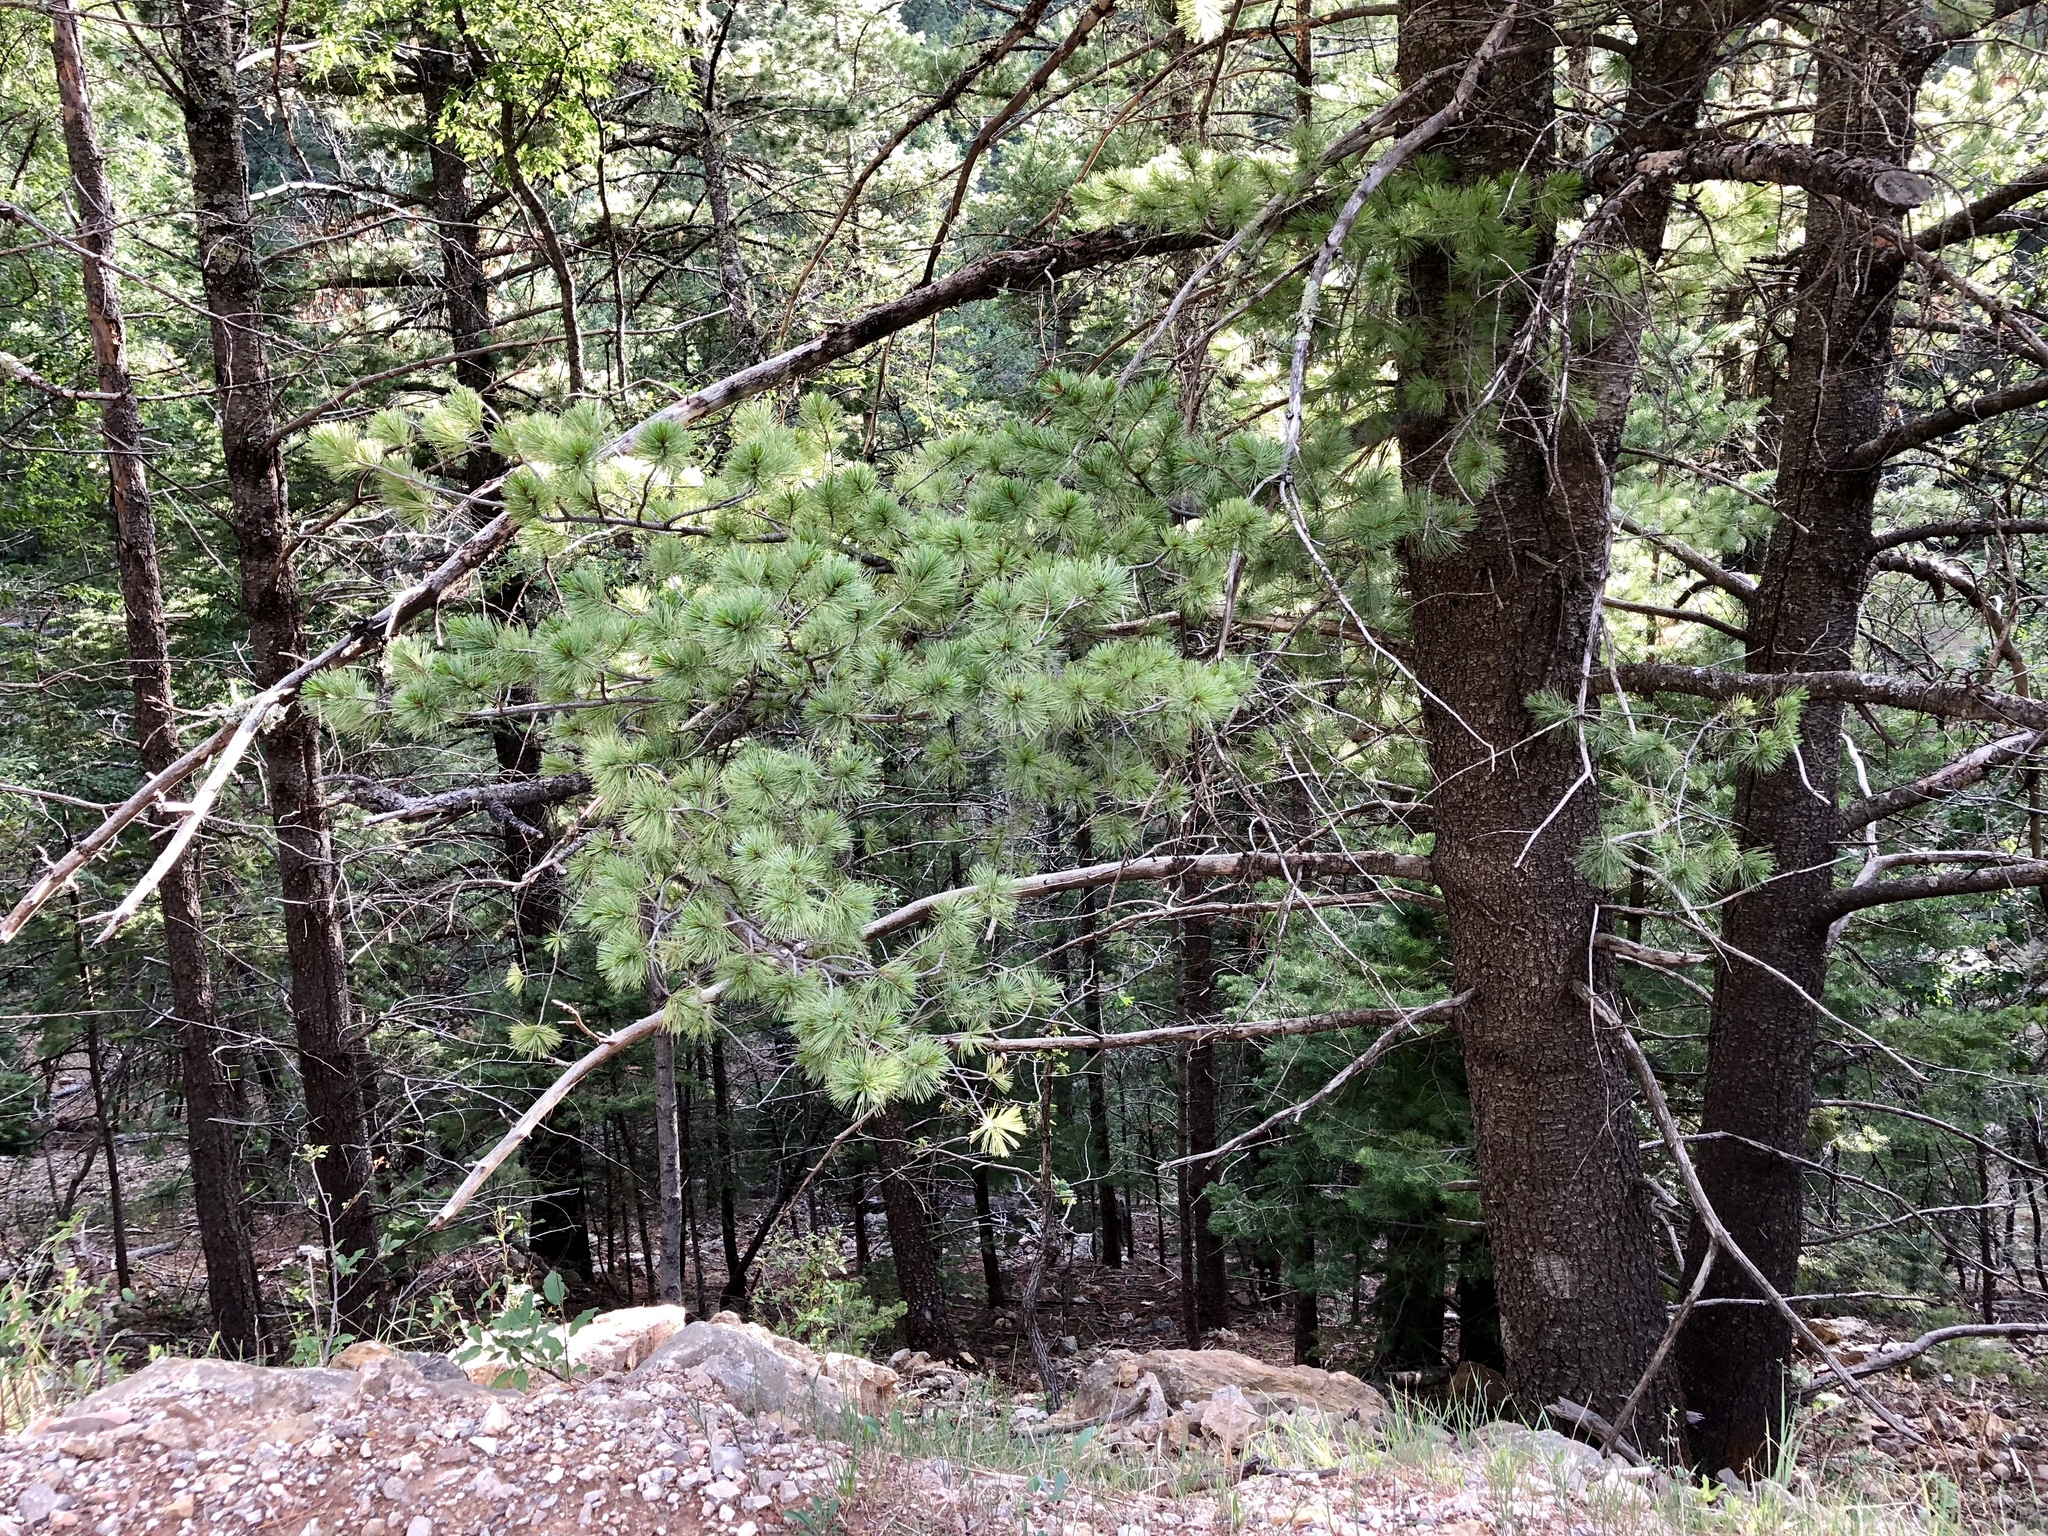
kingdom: Plantae
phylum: Tracheophyta
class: Pinopsida
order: Pinales
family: Pinaceae
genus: Pinus
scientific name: Pinus strobiformis
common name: Southwestern white pine
